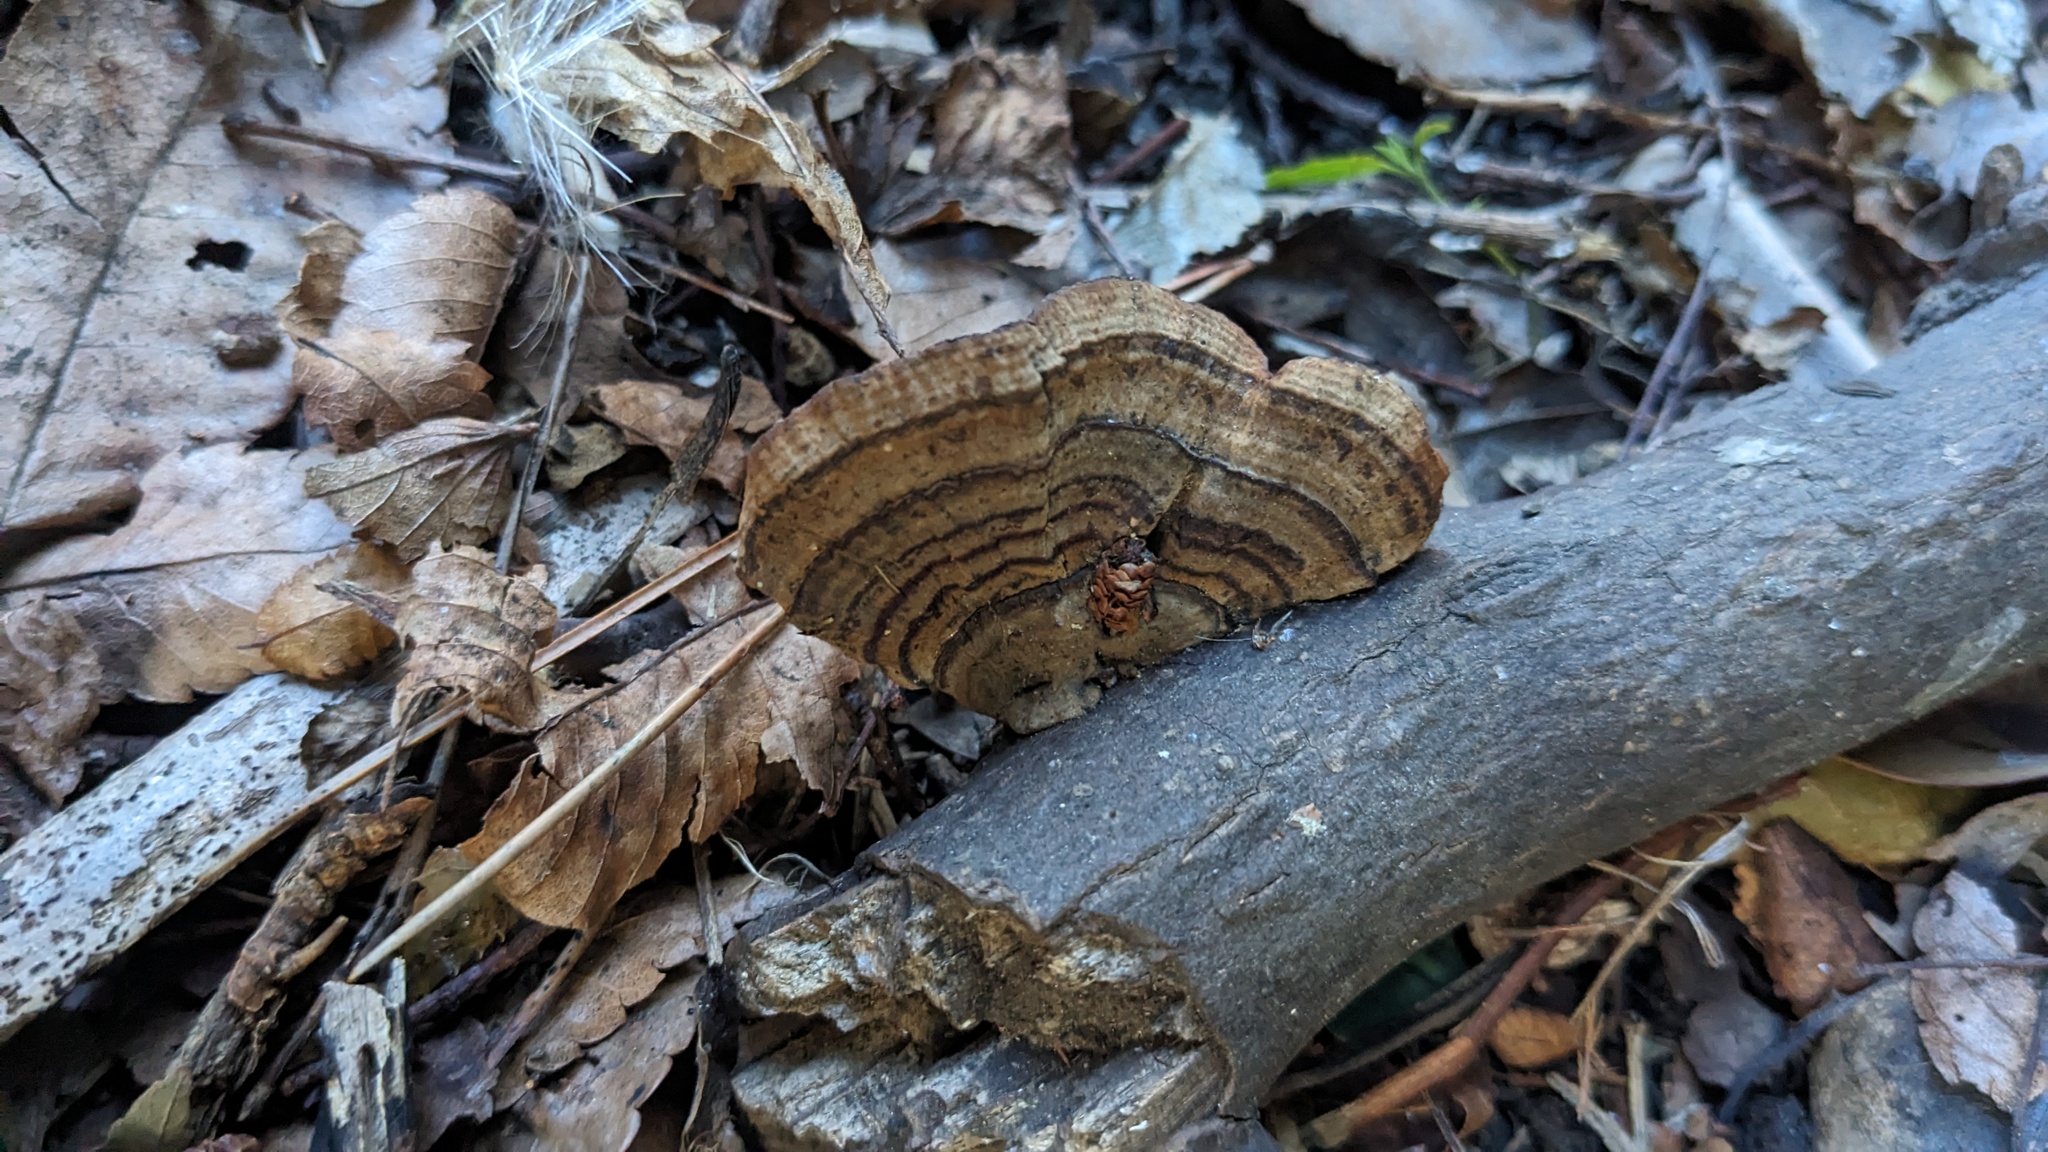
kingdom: Fungi
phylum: Basidiomycota
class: Agaricomycetes
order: Polyporales
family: Polyporaceae
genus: Lenzites
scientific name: Lenzites styracinus
